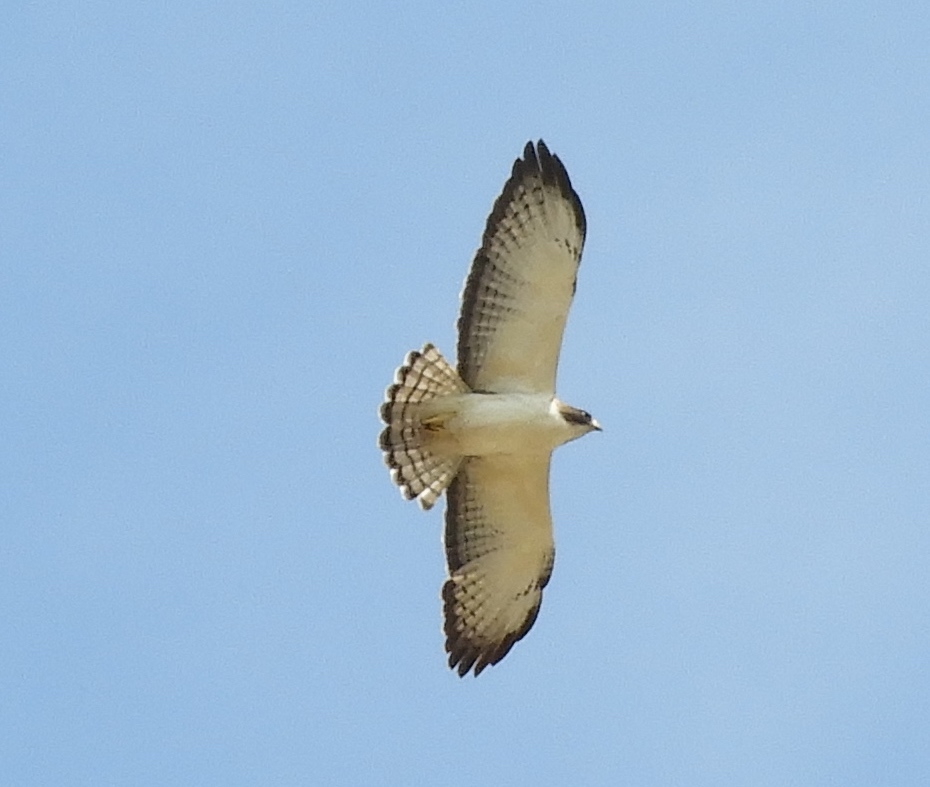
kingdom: Animalia
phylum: Chordata
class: Aves
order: Accipitriformes
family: Accipitridae
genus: Buteo
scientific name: Buteo brachyurus
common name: Short-tailed hawk
